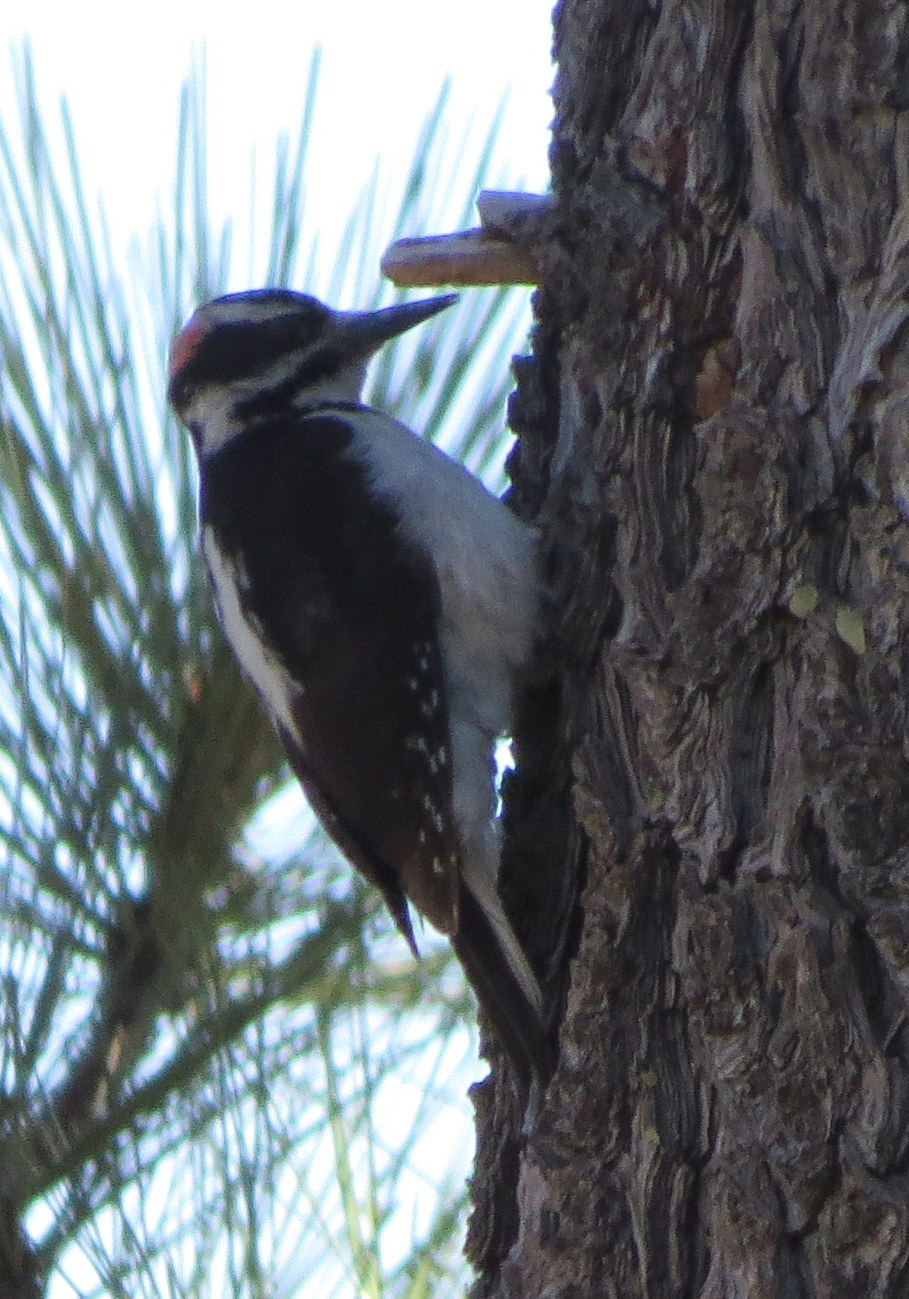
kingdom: Animalia
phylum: Chordata
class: Aves
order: Piciformes
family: Picidae
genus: Leuconotopicus
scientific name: Leuconotopicus villosus
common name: Hairy woodpecker
